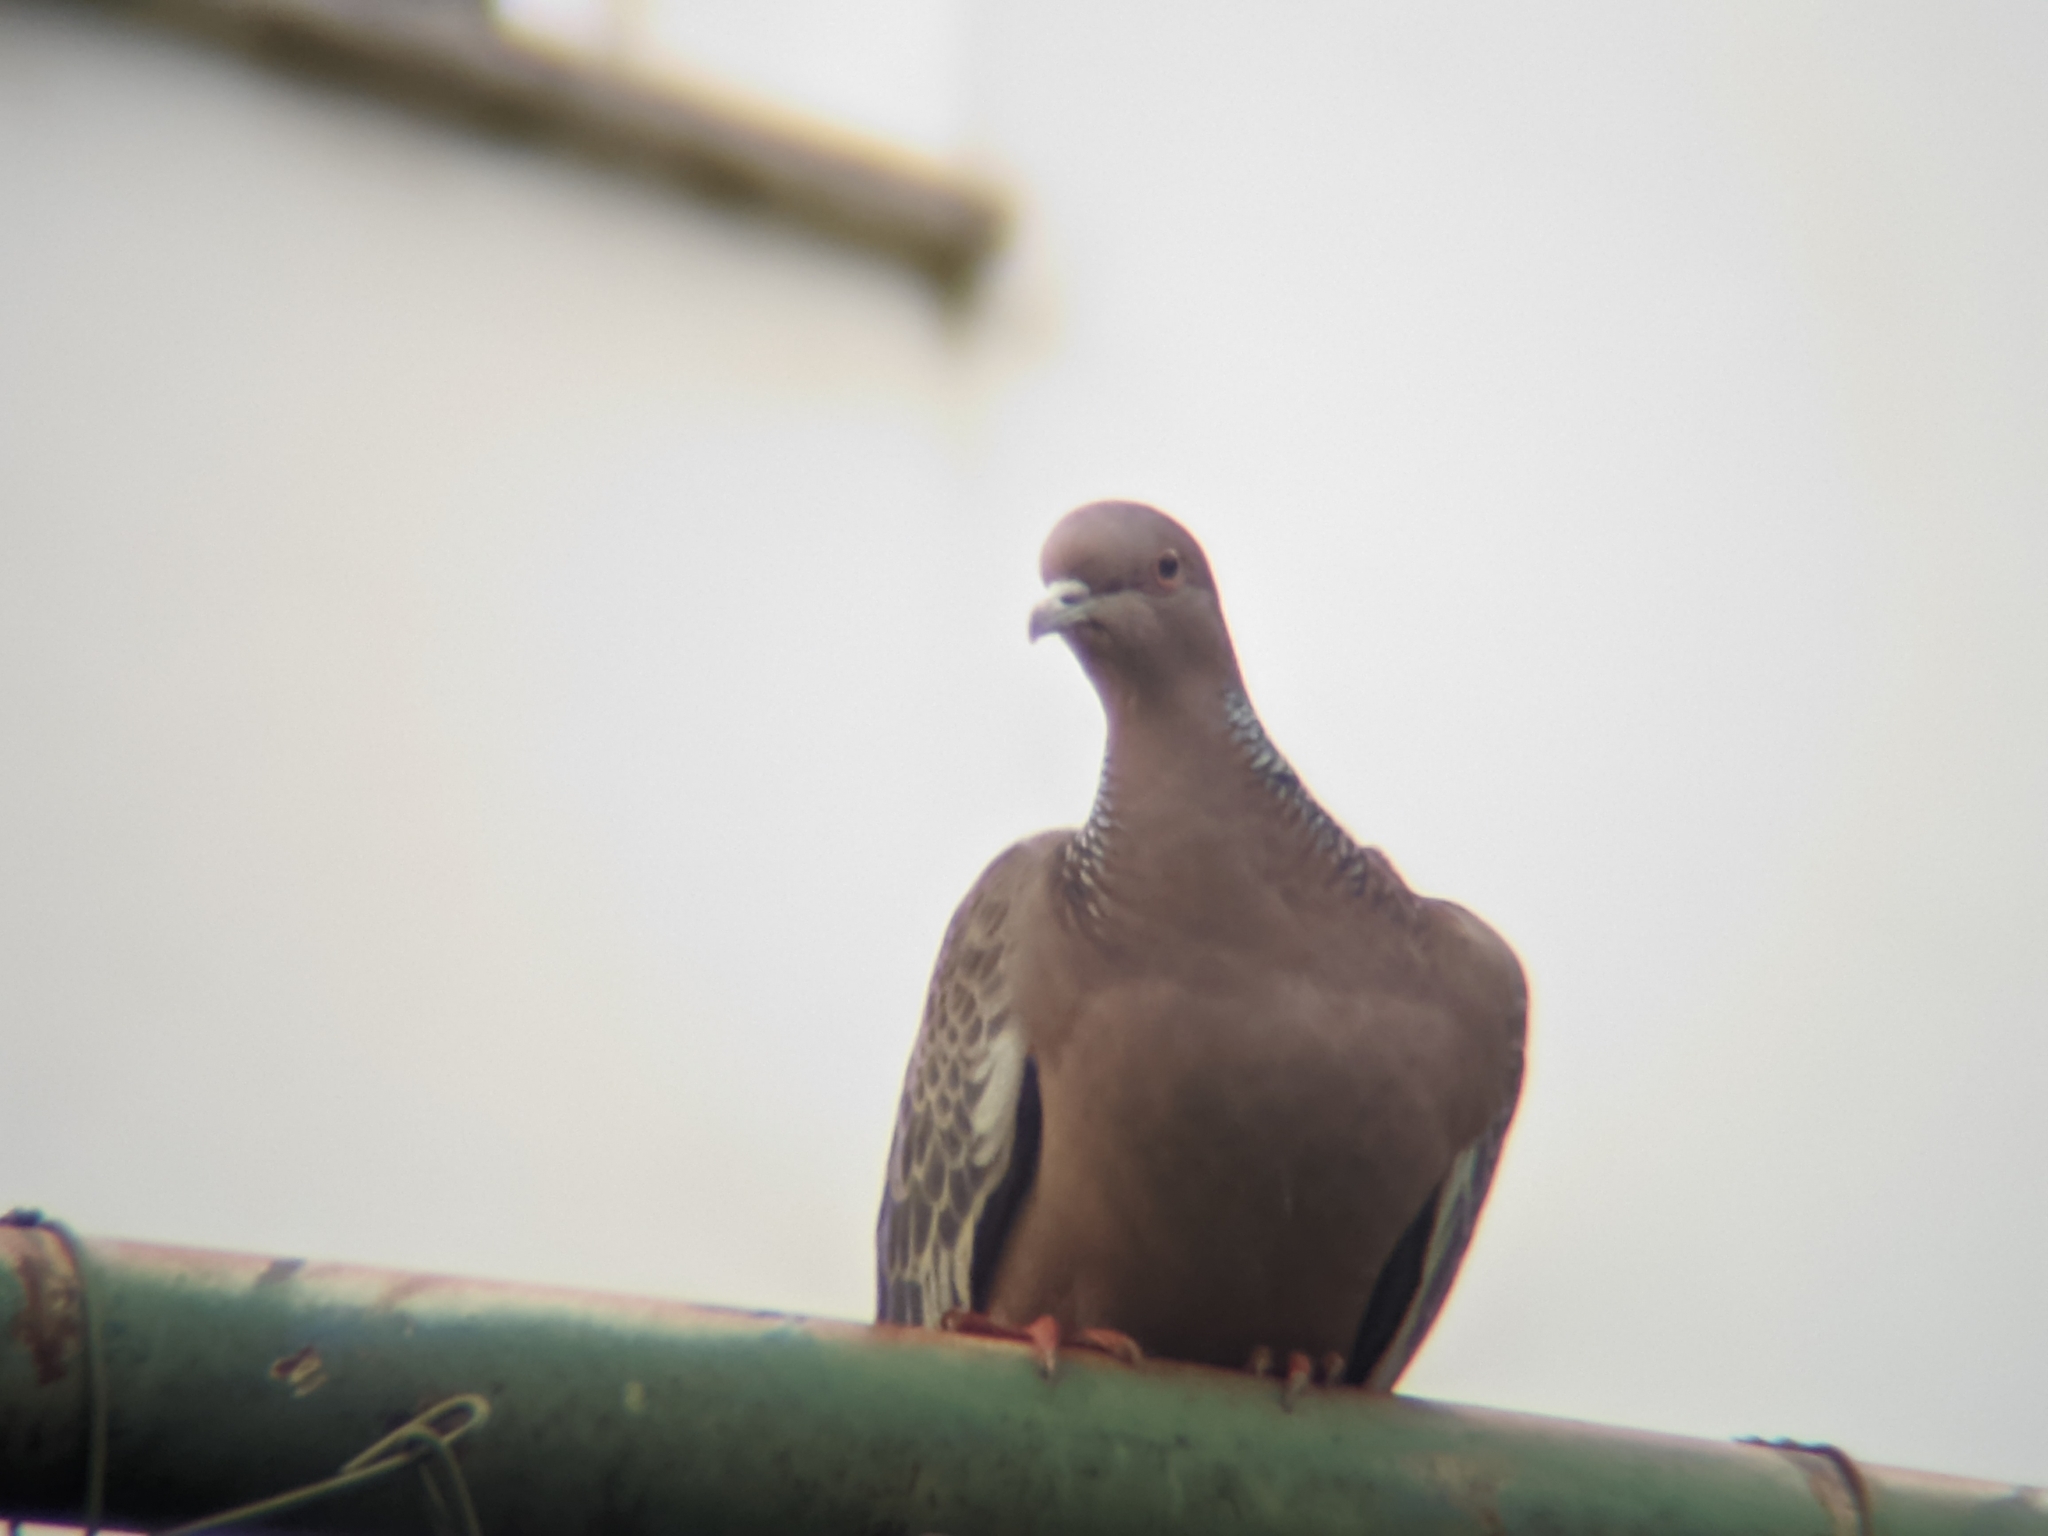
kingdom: Animalia
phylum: Chordata
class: Aves
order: Columbiformes
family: Columbidae
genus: Zenaida
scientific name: Zenaida auriculata
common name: Eared dove
